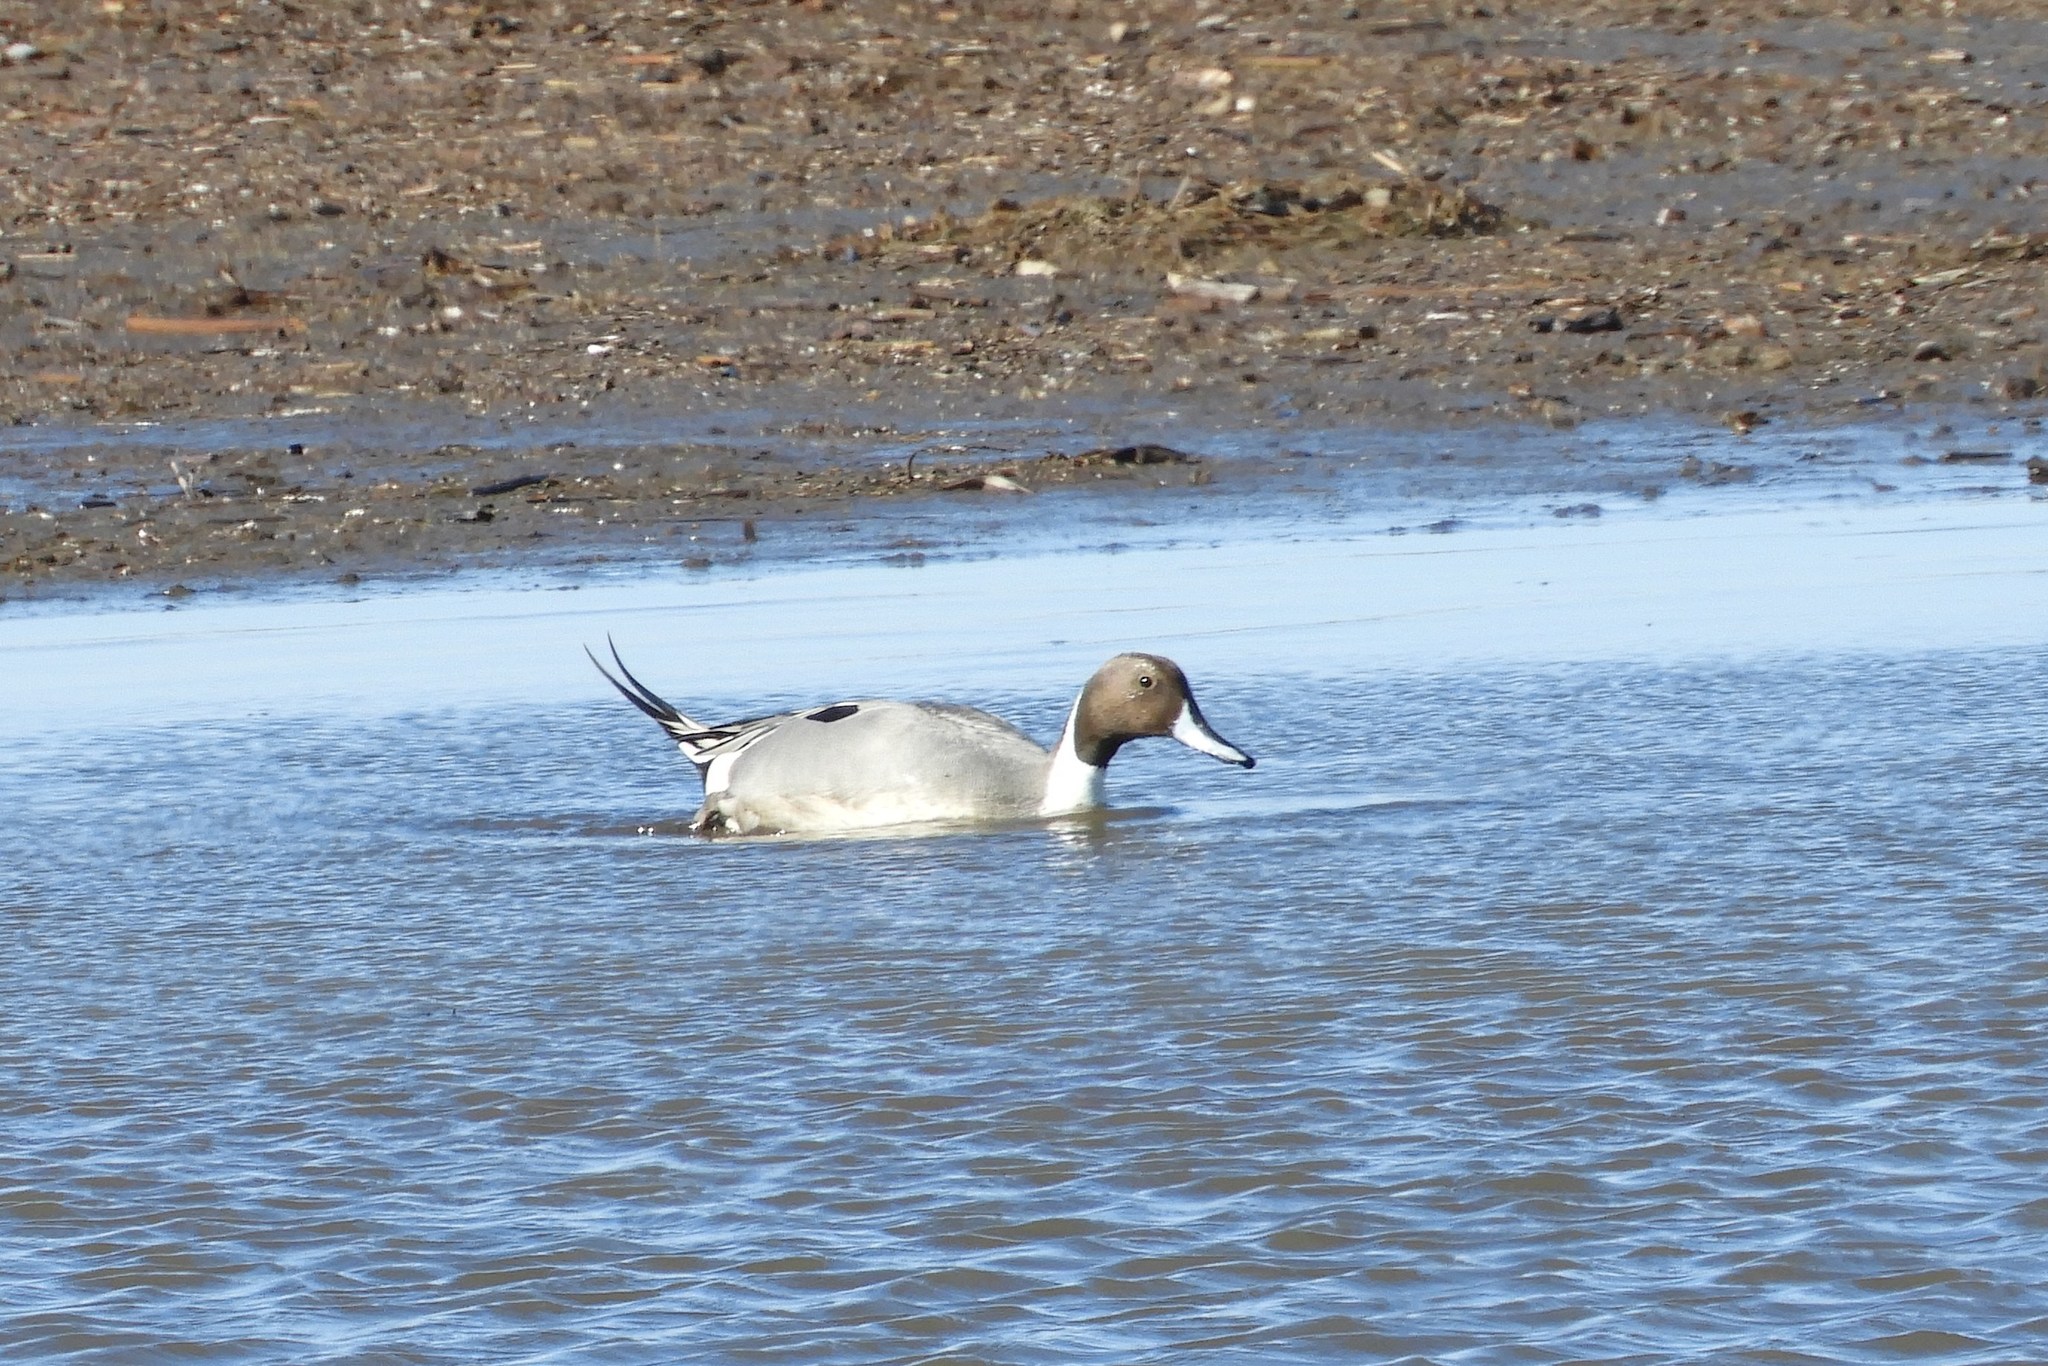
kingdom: Animalia
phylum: Chordata
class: Aves
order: Anseriformes
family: Anatidae
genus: Anas
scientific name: Anas acuta
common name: Northern pintail
